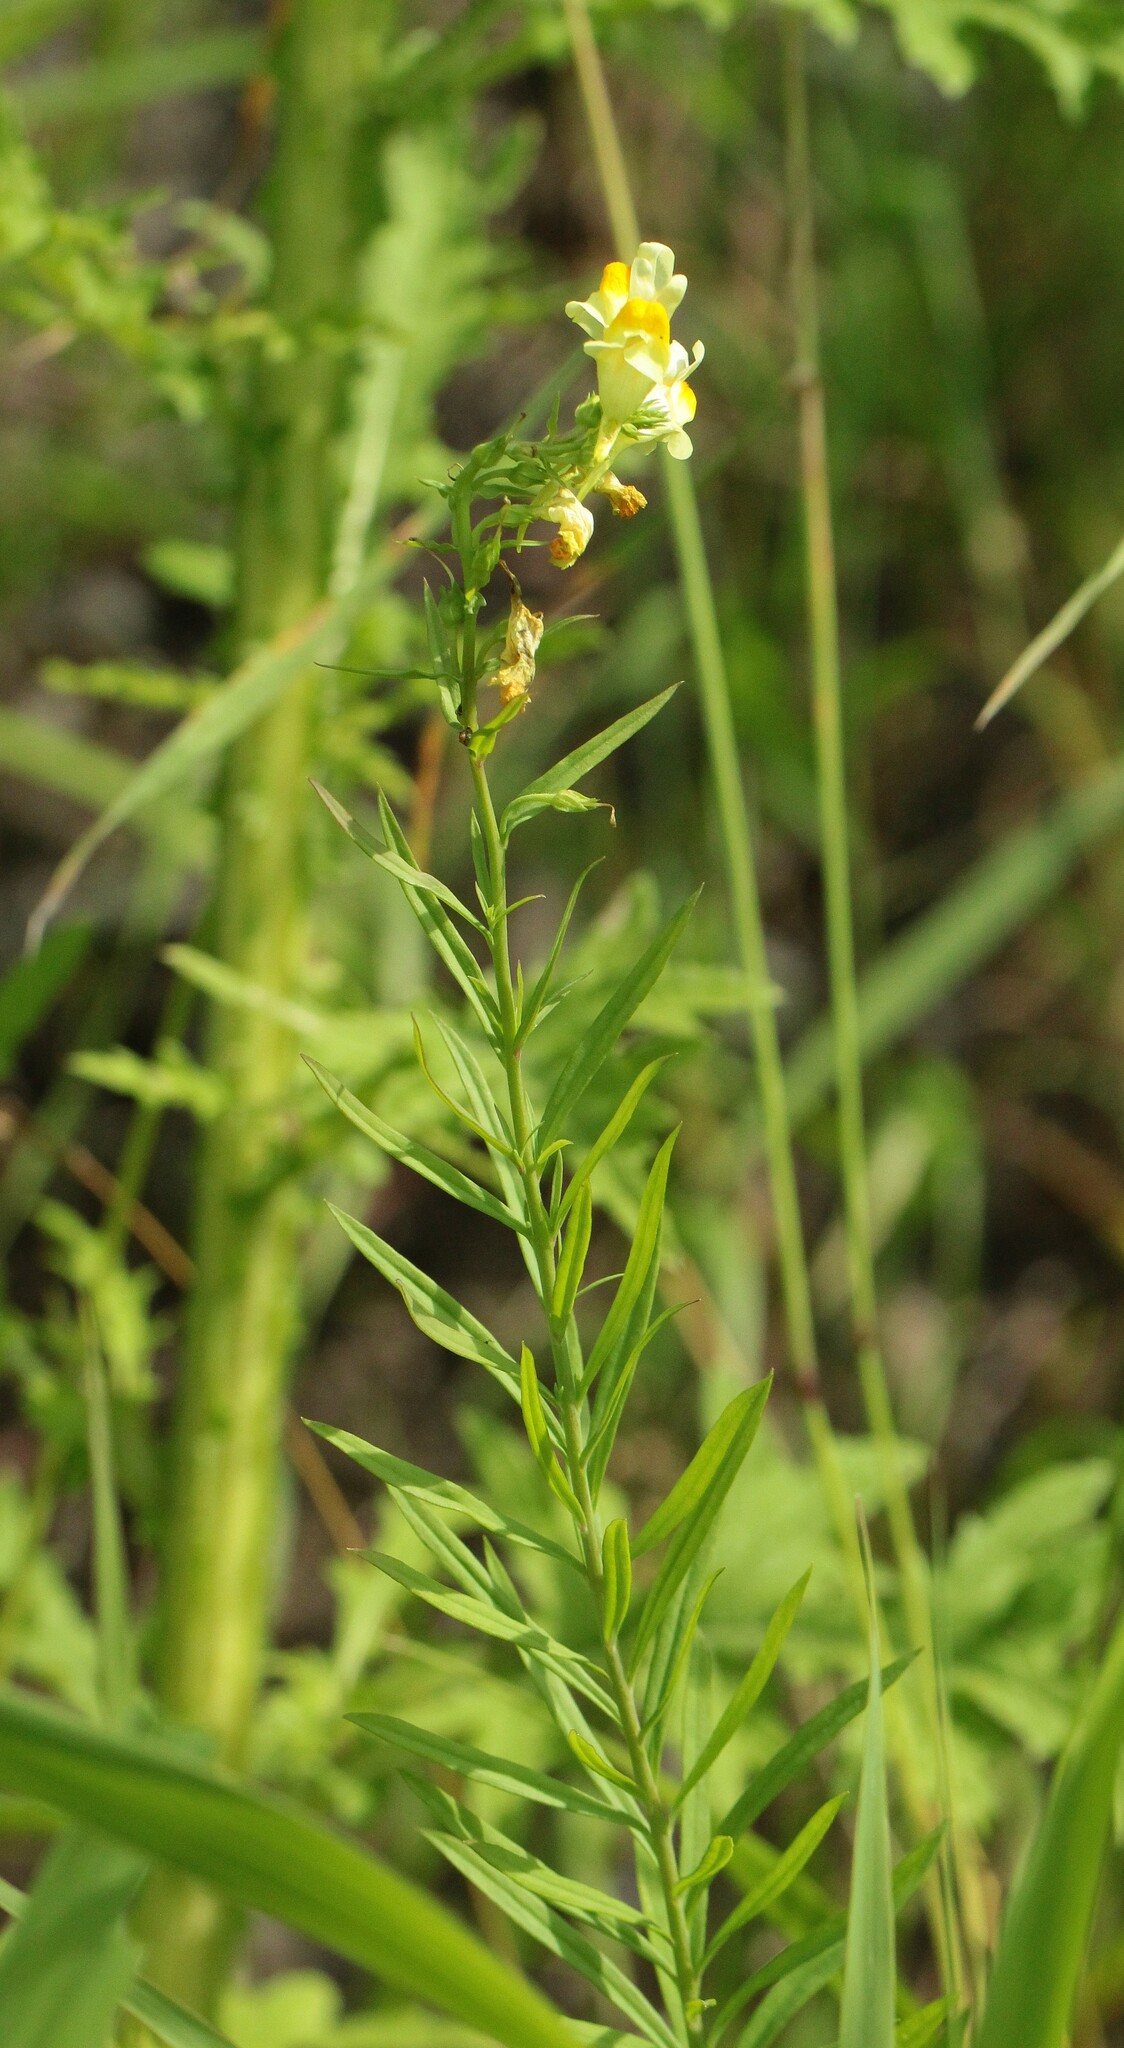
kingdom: Plantae
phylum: Tracheophyta
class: Magnoliopsida
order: Lamiales
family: Plantaginaceae
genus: Linaria
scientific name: Linaria vulgaris
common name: Butter and eggs
